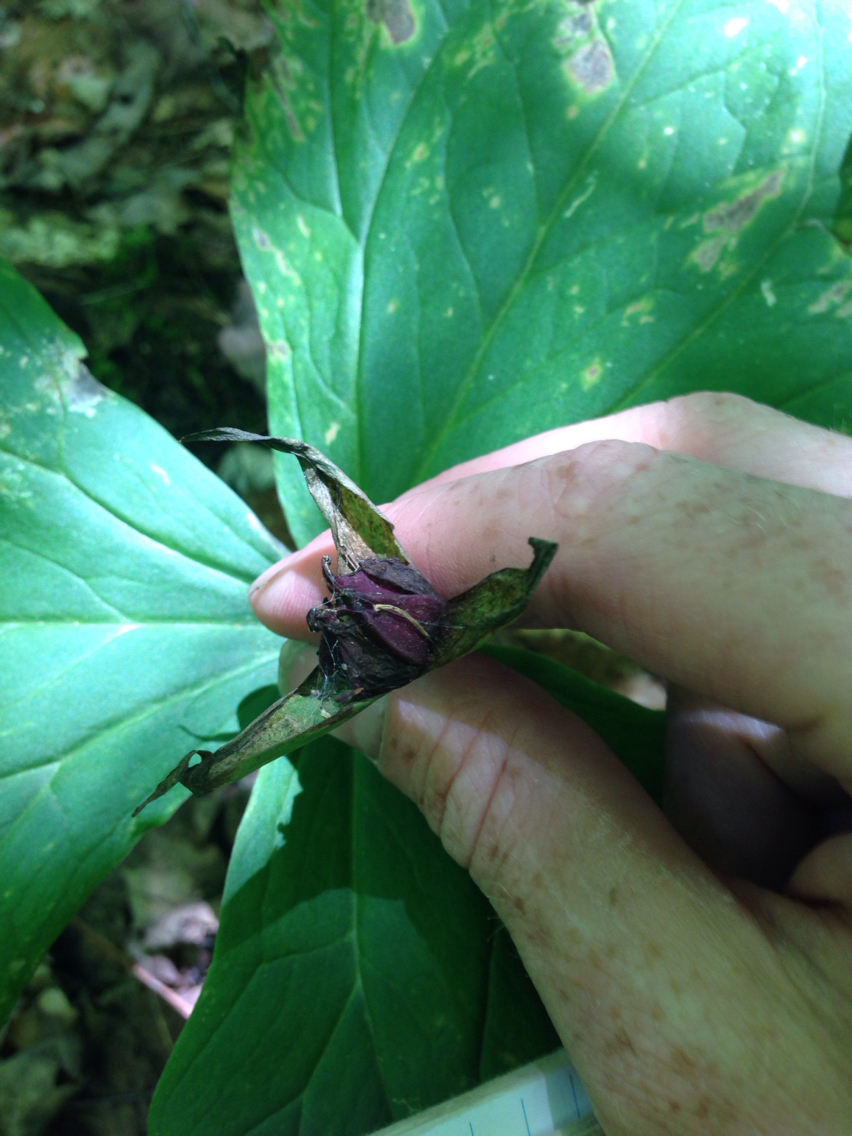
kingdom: Plantae
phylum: Tracheophyta
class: Liliopsida
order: Liliales
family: Melanthiaceae
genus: Trillium
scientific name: Trillium erectum
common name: Purple trillium
